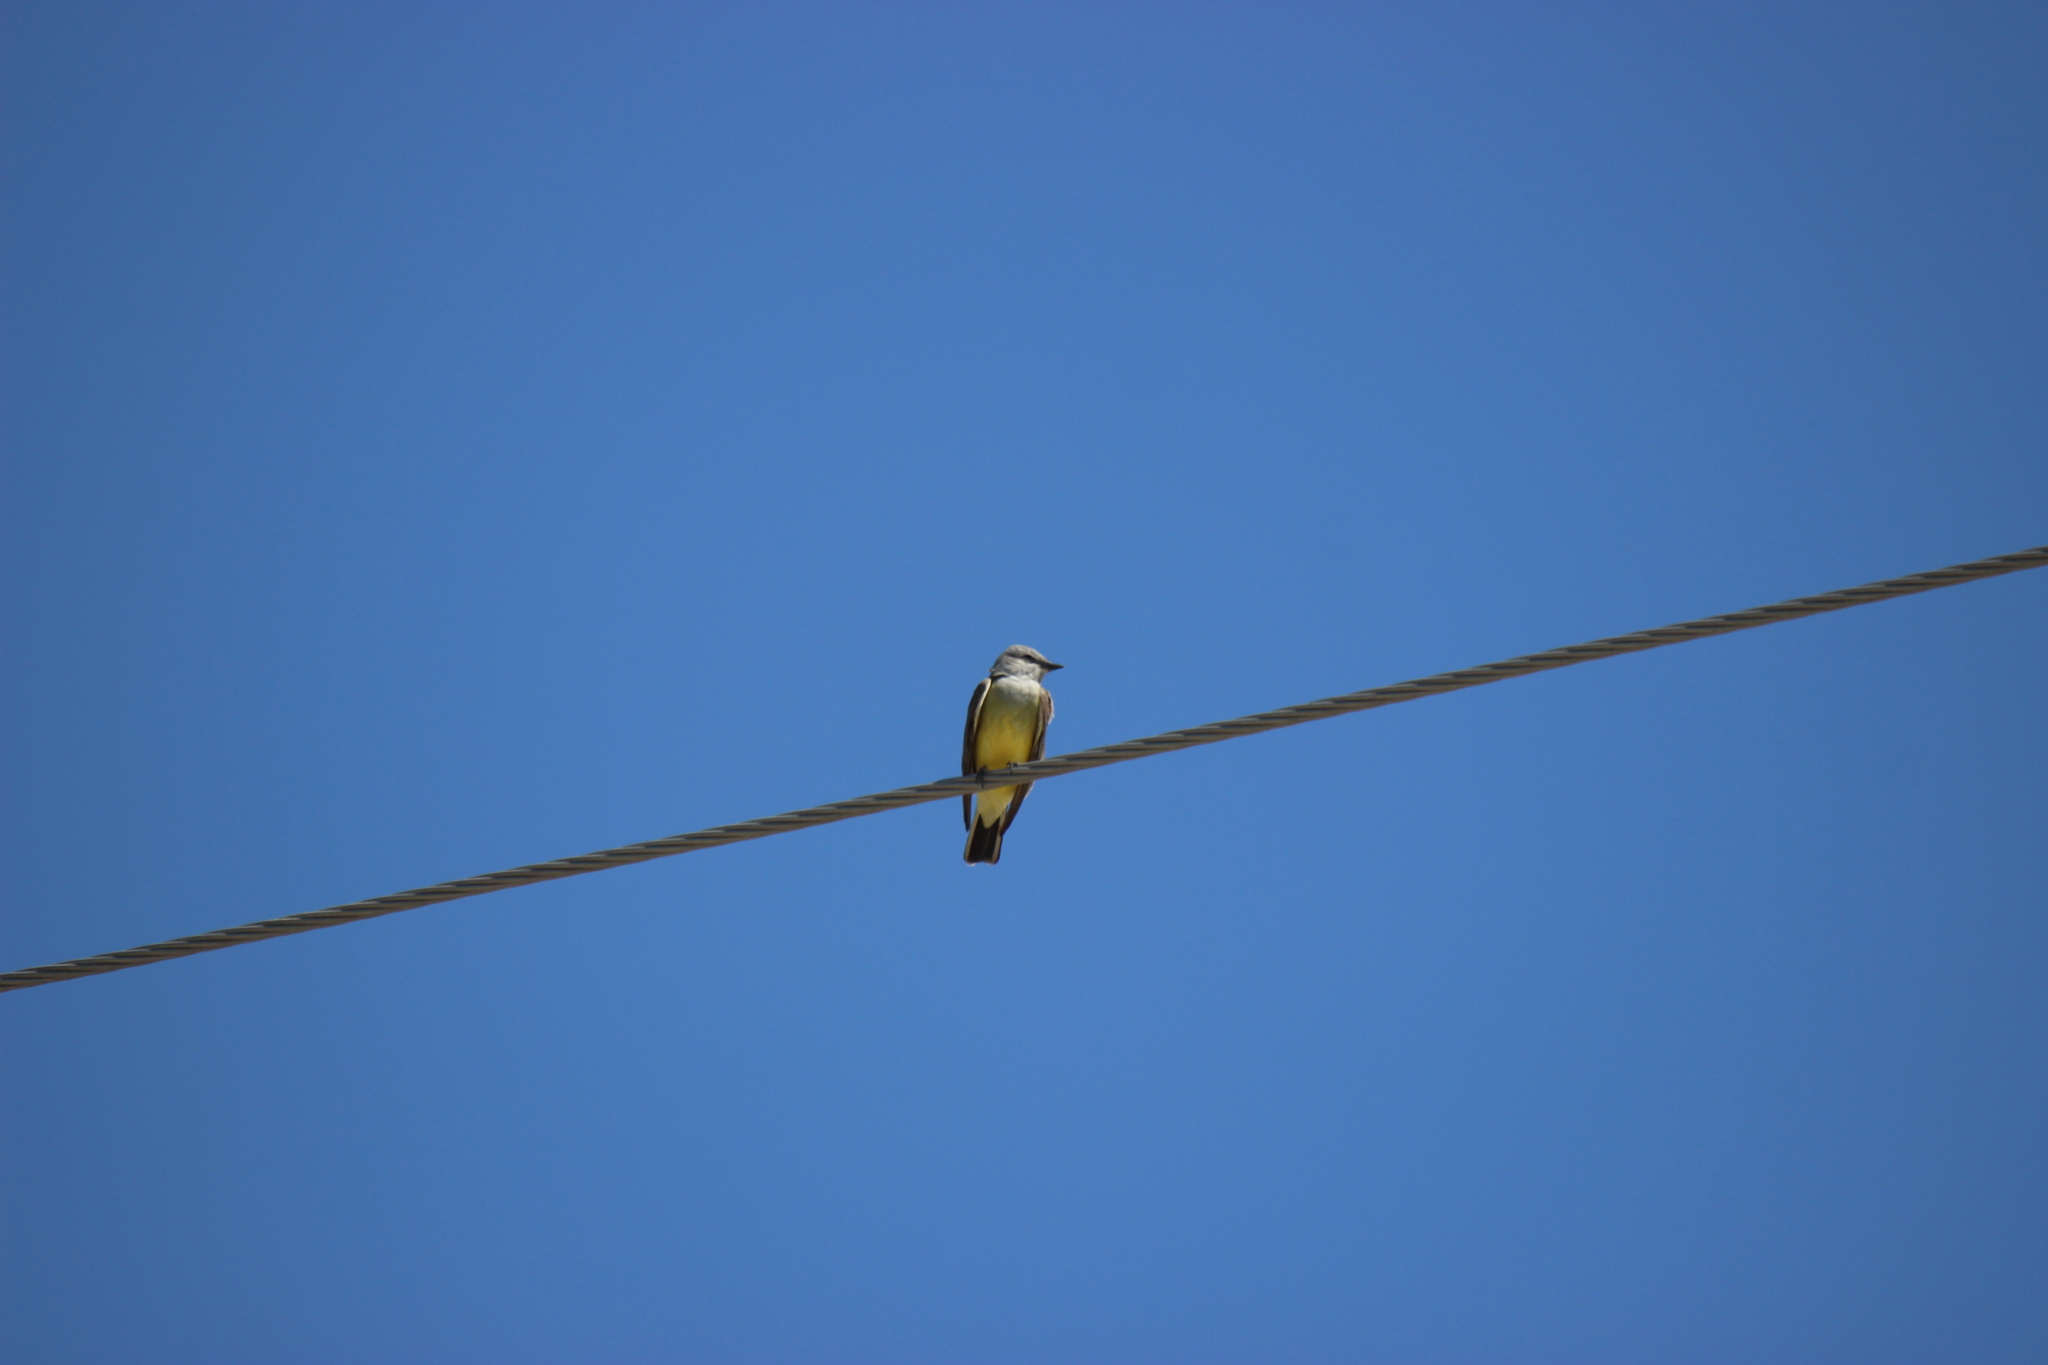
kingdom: Animalia
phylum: Chordata
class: Aves
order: Passeriformes
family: Tyrannidae
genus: Tyrannus
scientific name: Tyrannus verticalis
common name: Western kingbird
